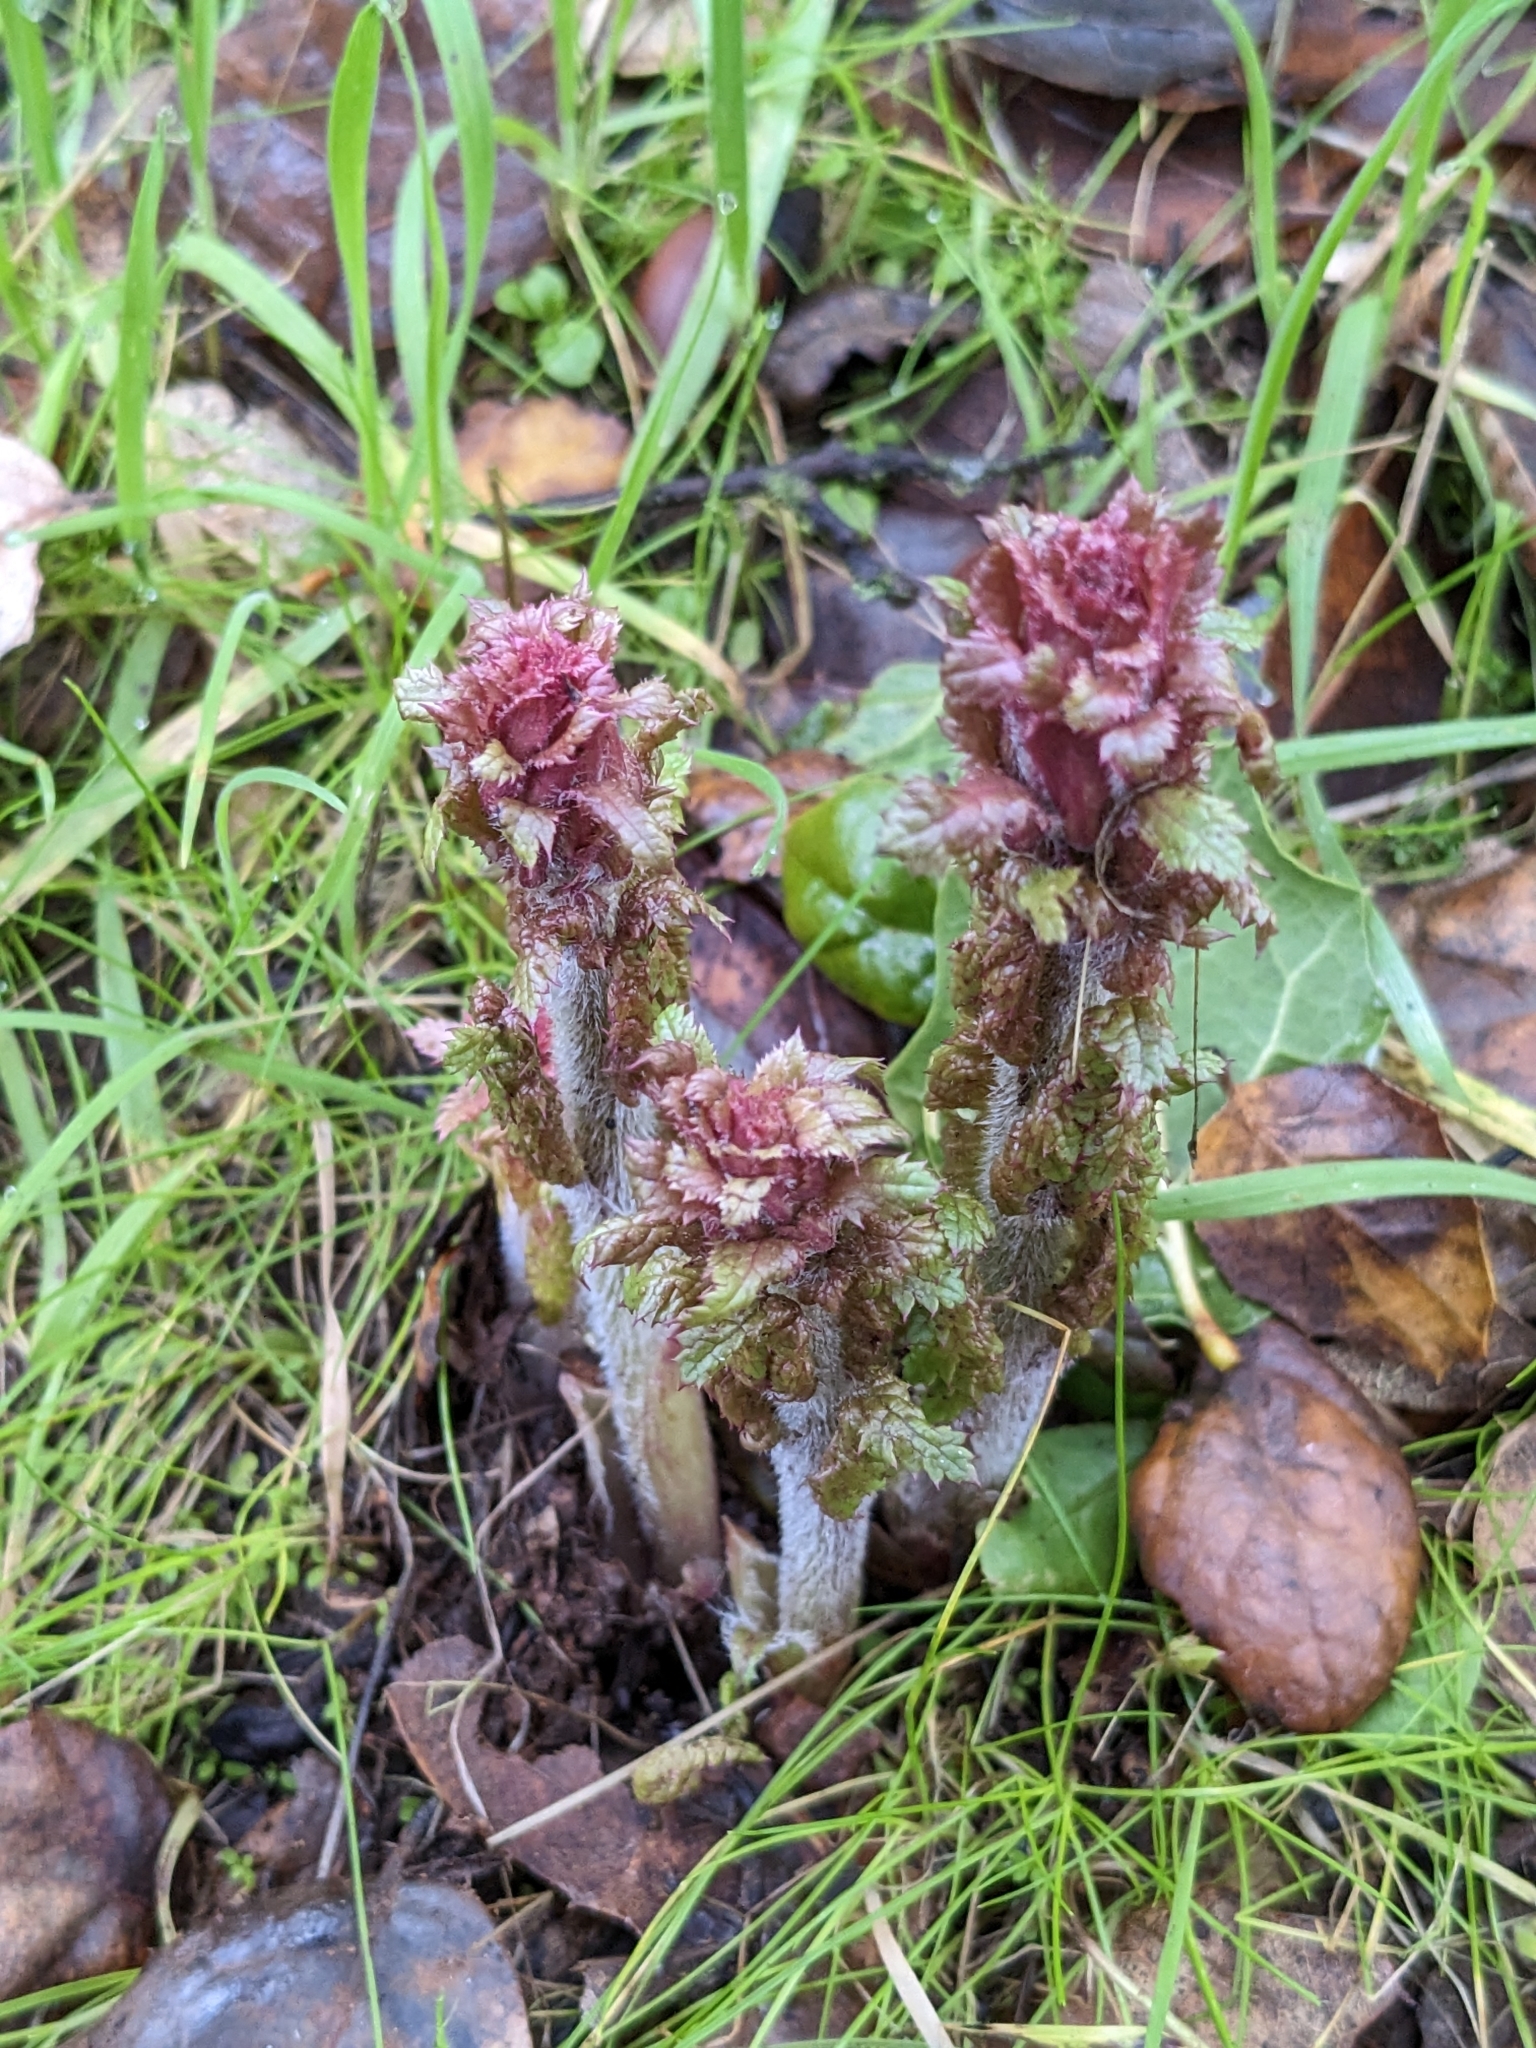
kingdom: Plantae
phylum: Tracheophyta
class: Magnoliopsida
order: Lamiales
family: Orobanchaceae
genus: Pedicularis
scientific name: Pedicularis densiflora
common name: Indian warrior
